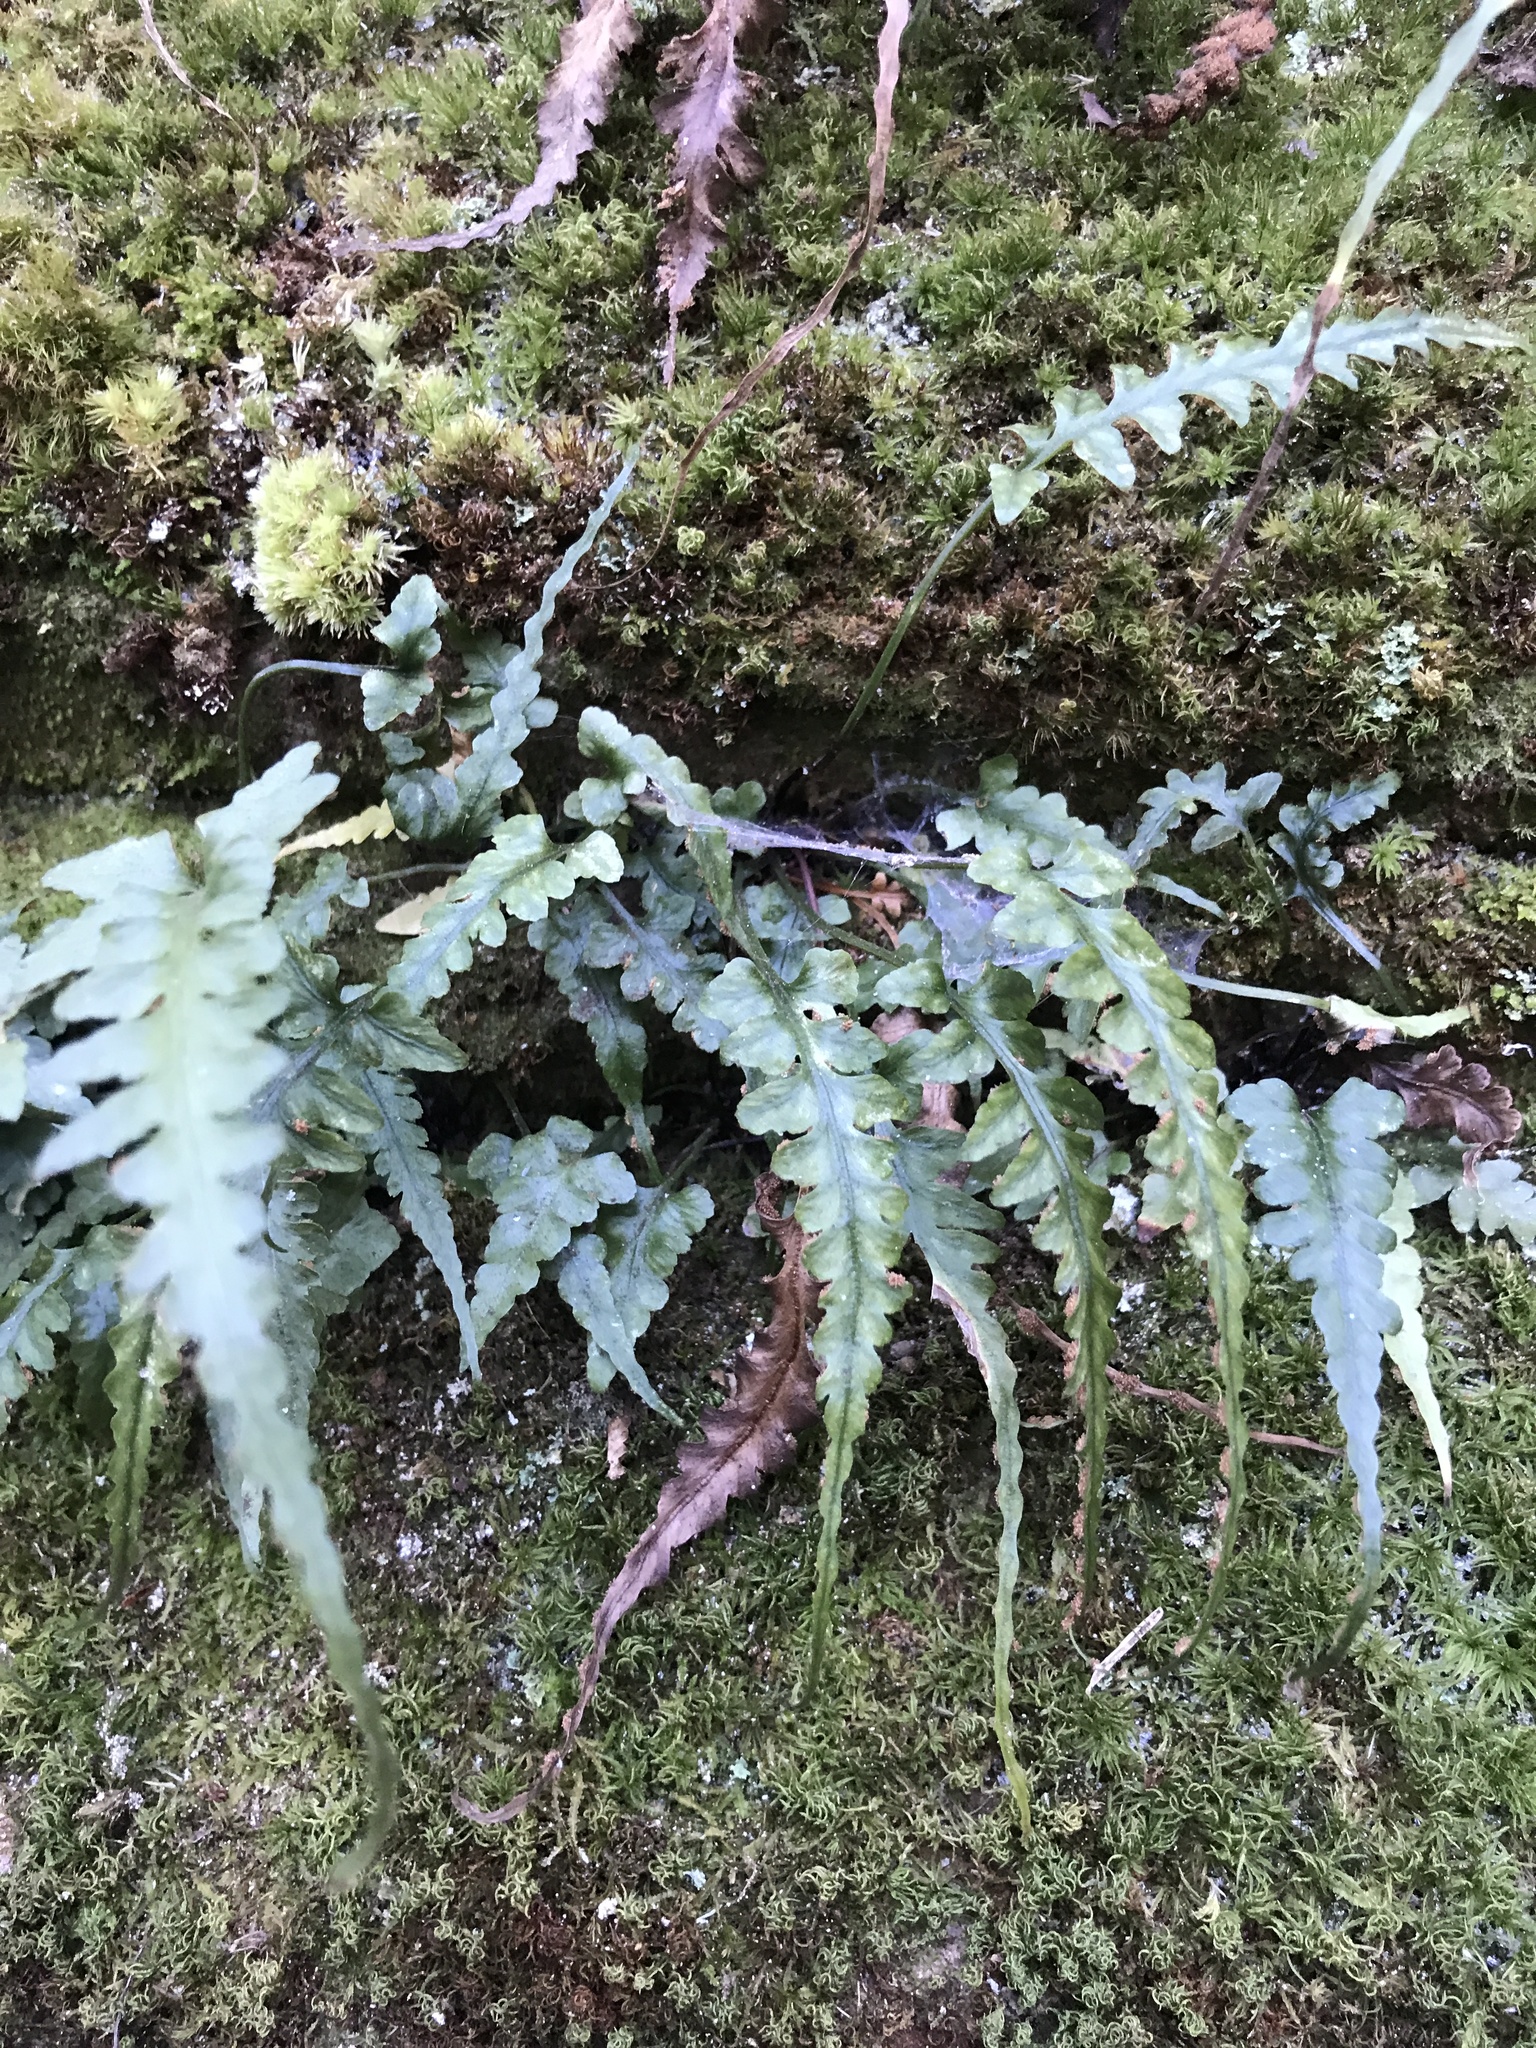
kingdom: Plantae
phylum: Tracheophyta
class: Polypodiopsida
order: Polypodiales
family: Aspleniaceae
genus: Asplenium
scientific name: Asplenium pinnatifidum
